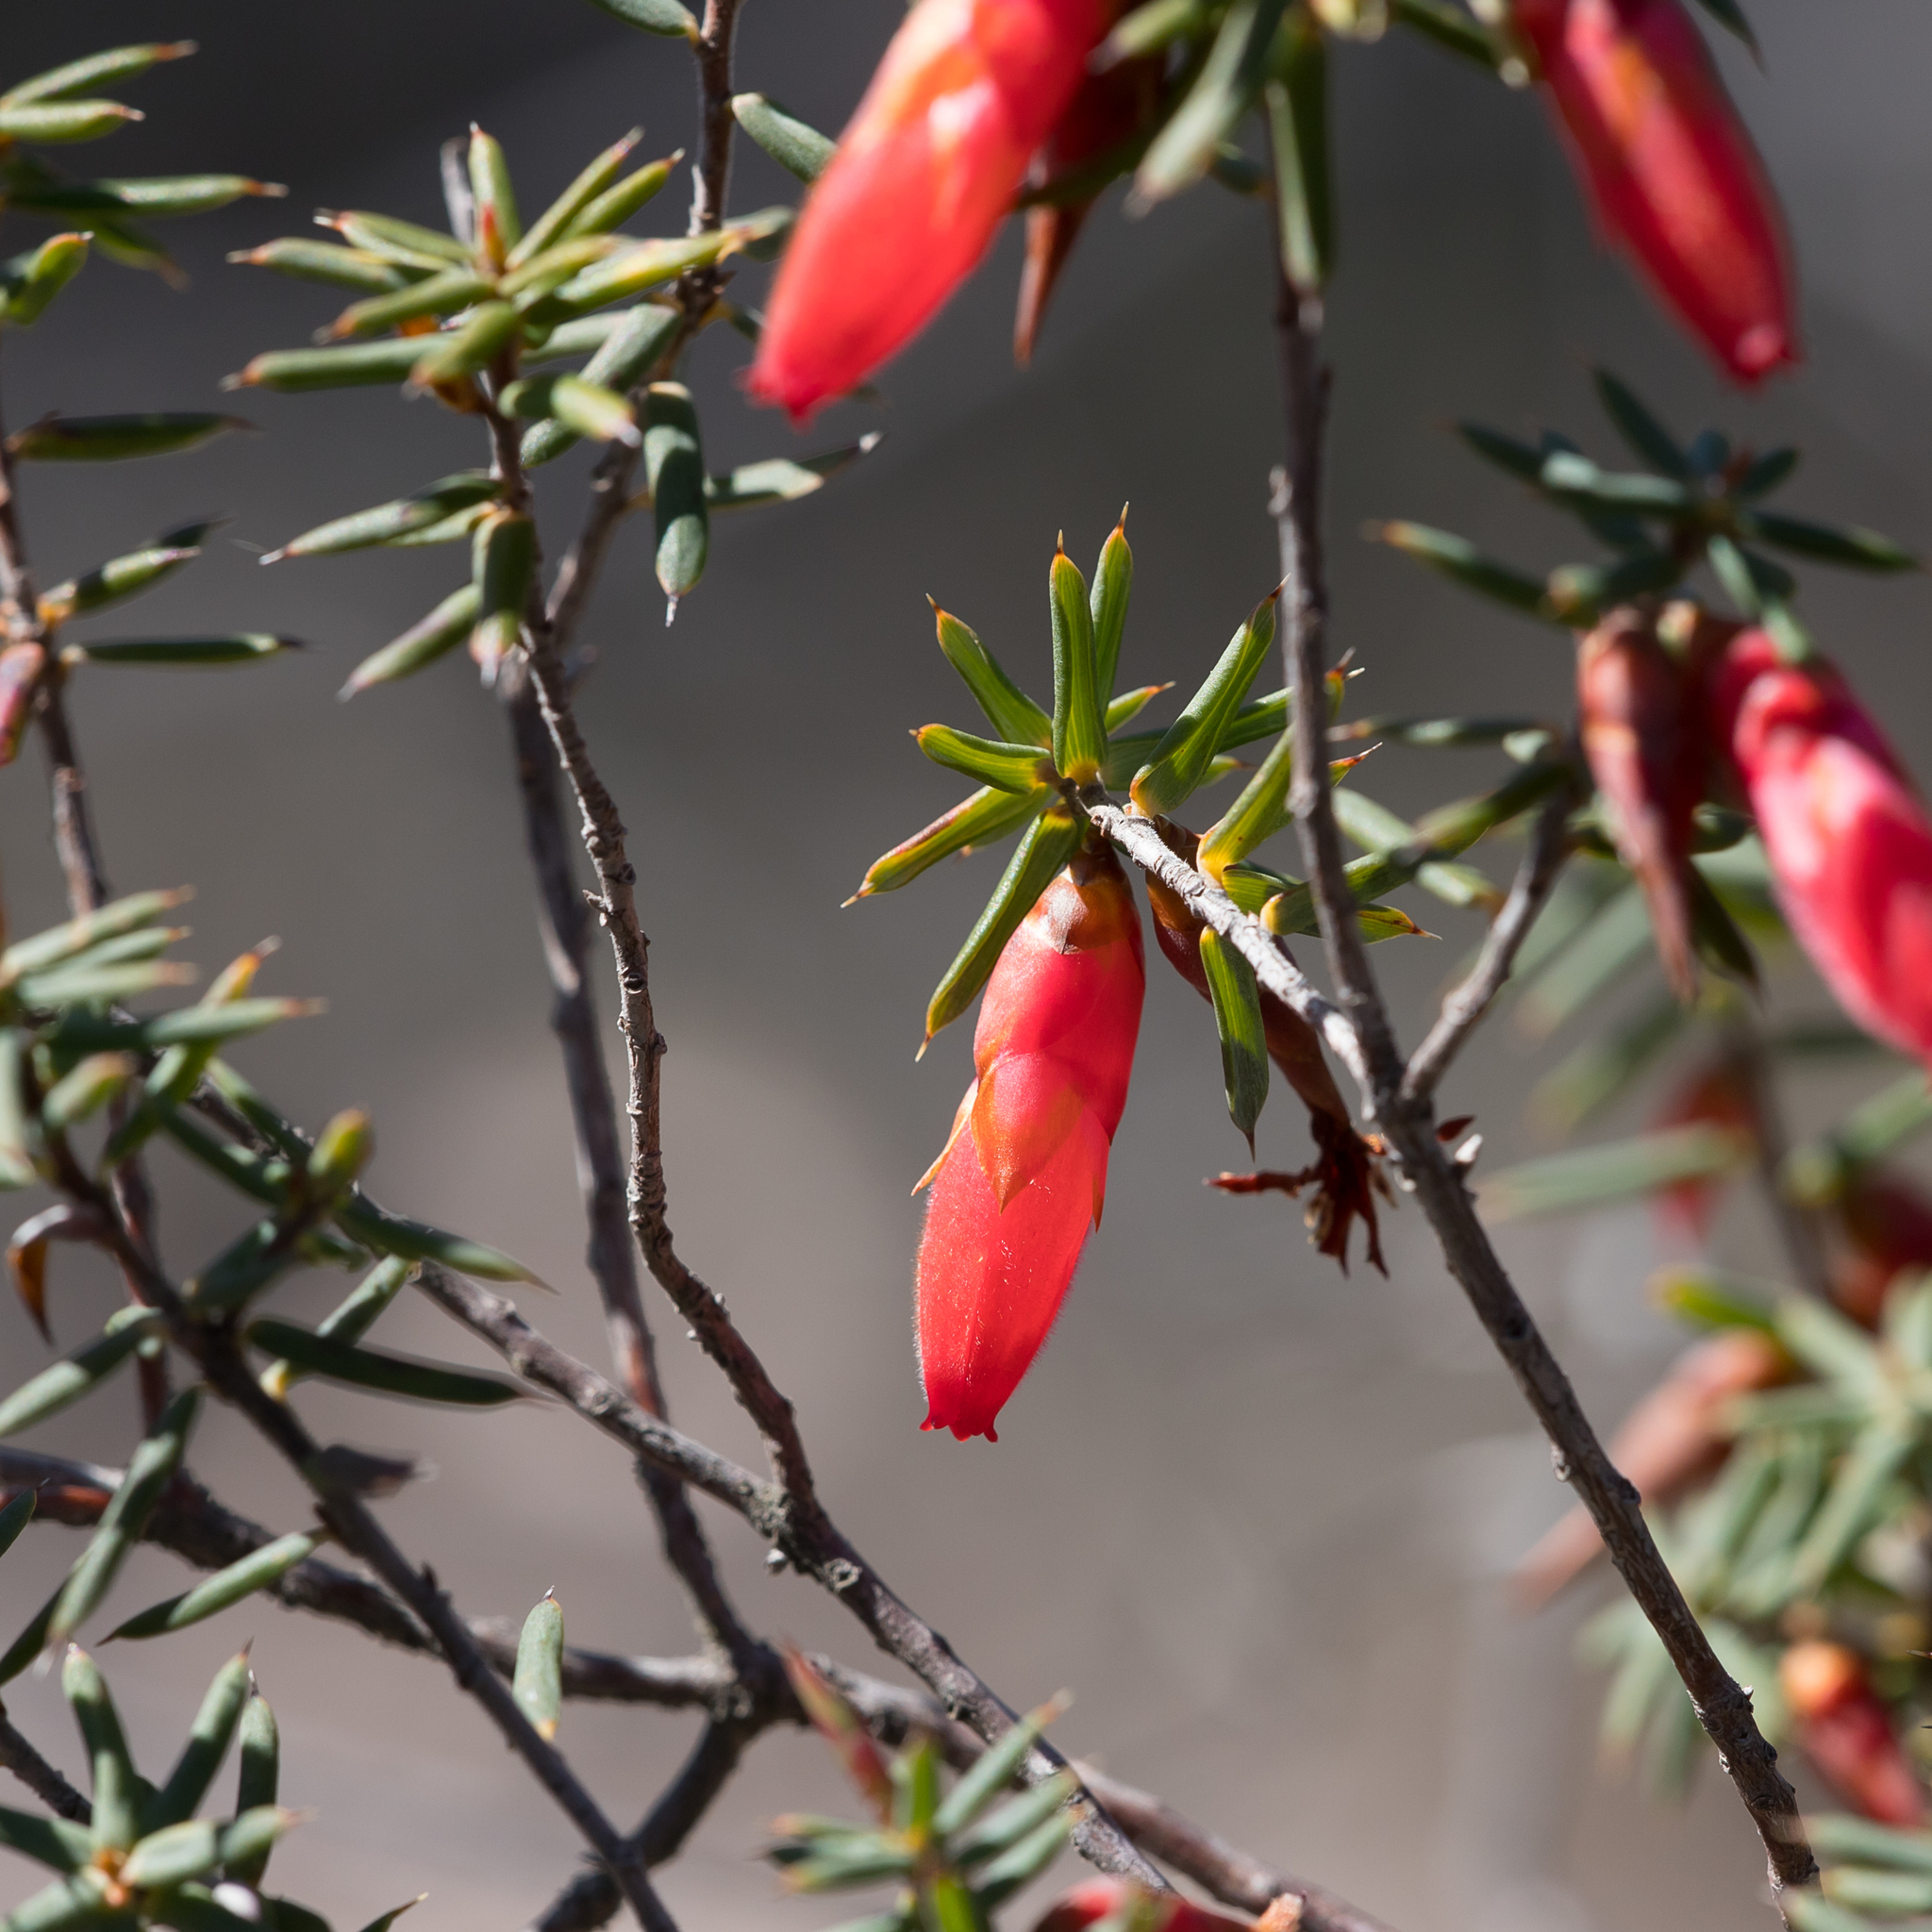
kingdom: Plantae
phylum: Tracheophyta
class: Magnoliopsida
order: Ericales
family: Ericaceae
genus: Stenanthera
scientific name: Stenanthera conostephioides
